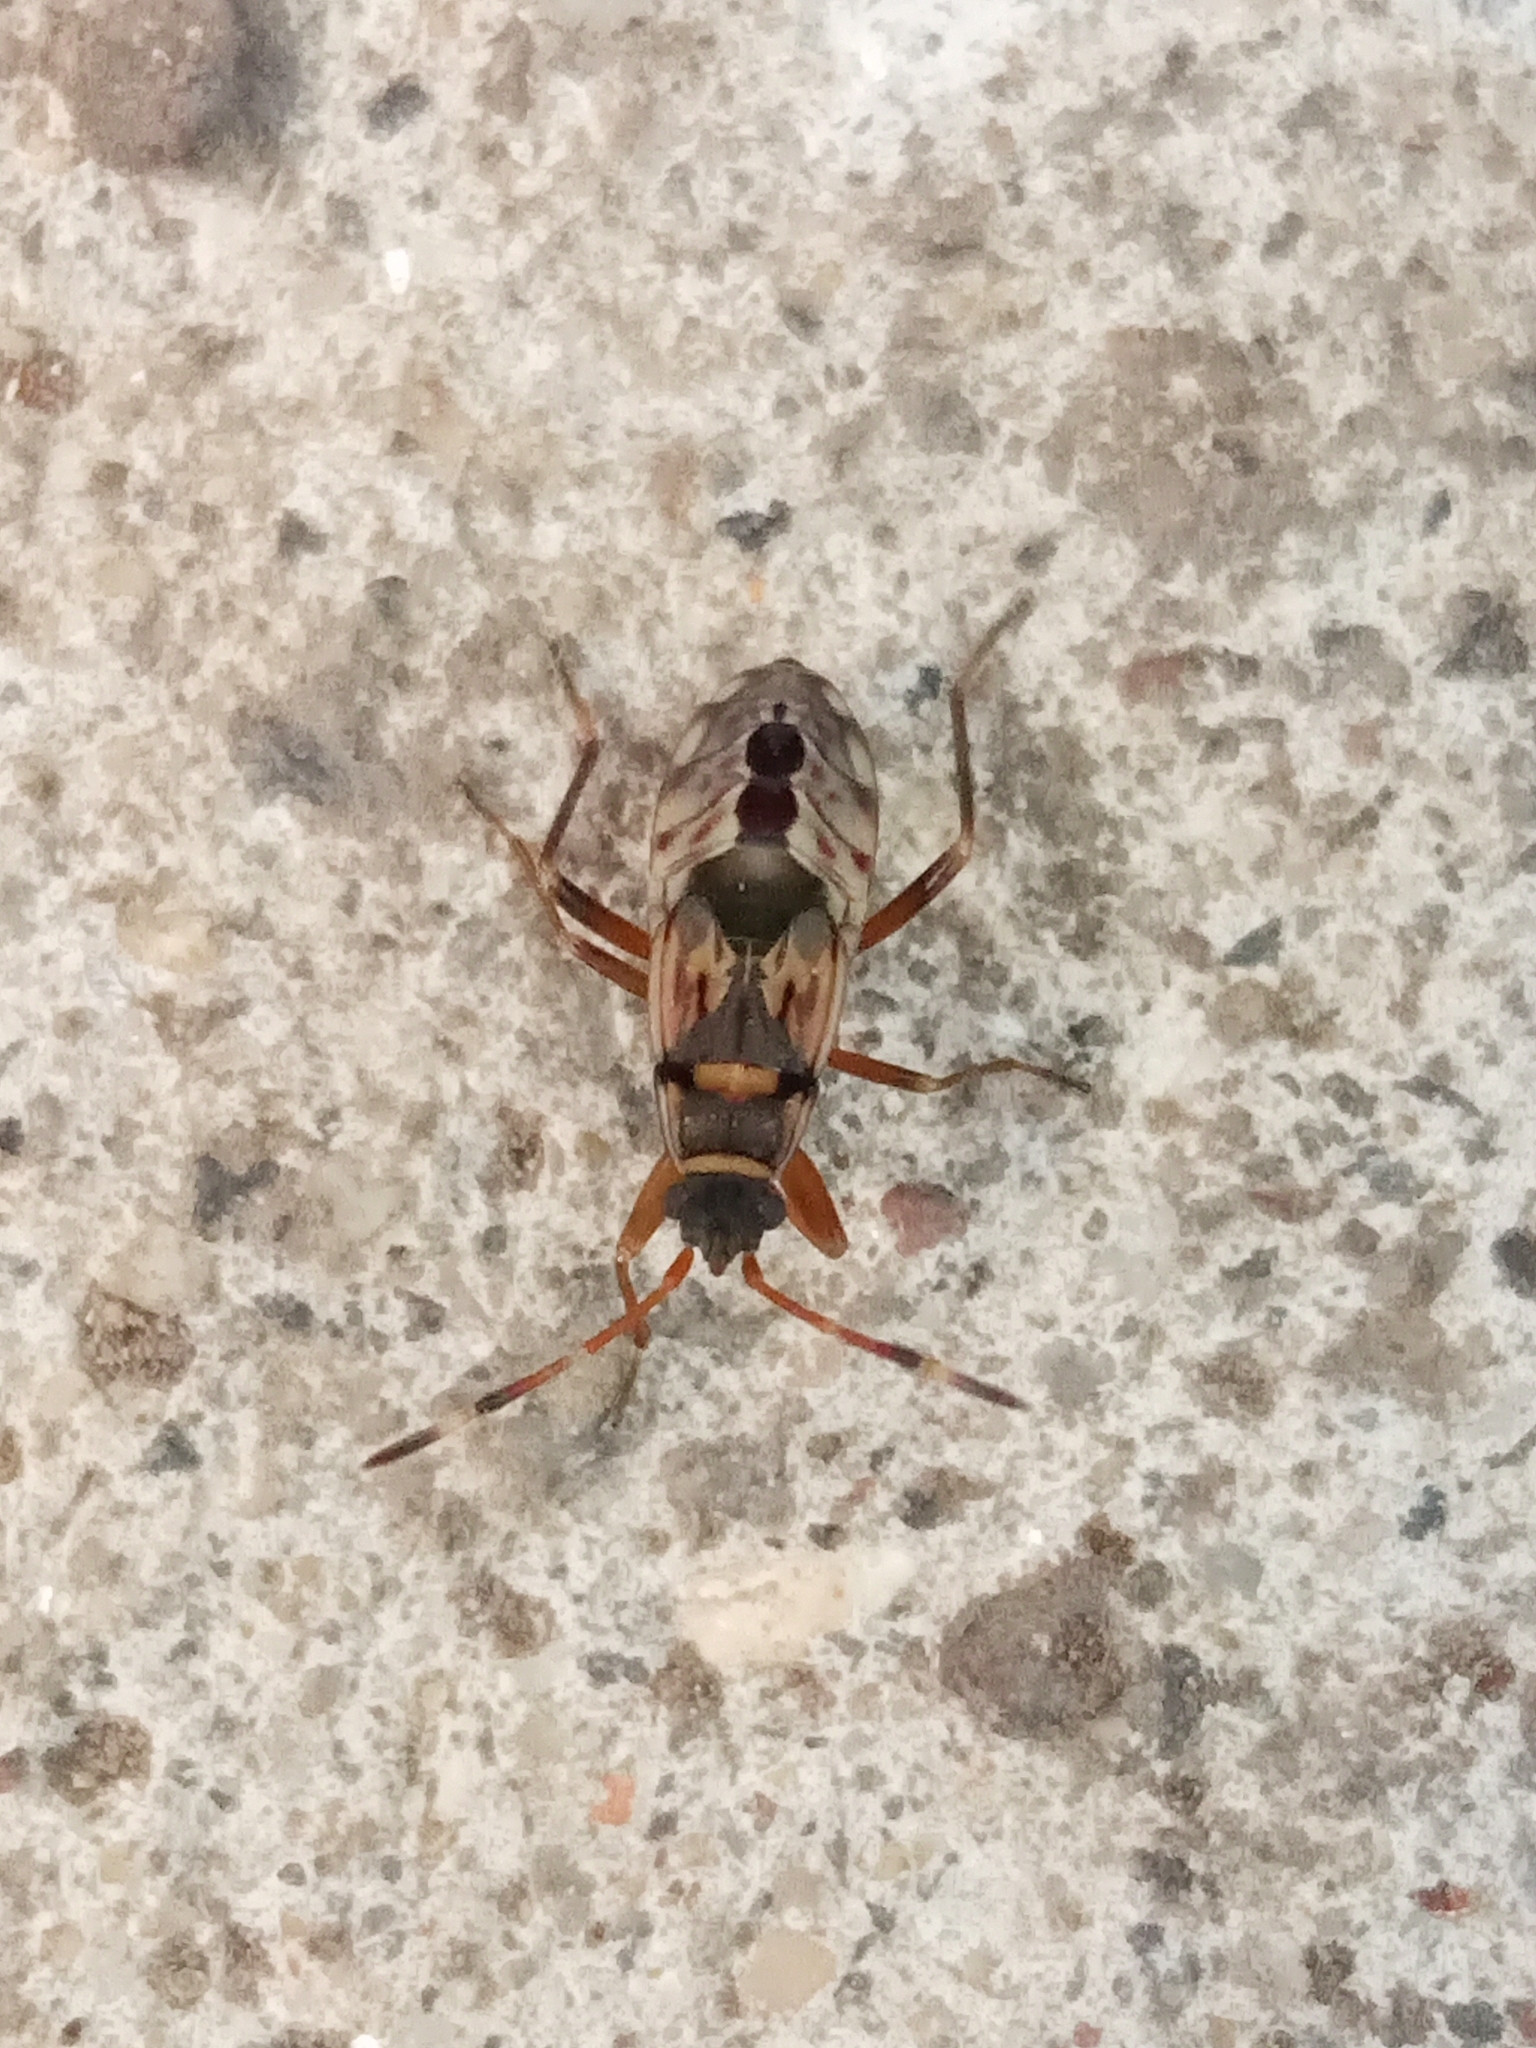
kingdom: Animalia
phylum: Arthropoda
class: Insecta
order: Hemiptera
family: Rhyparochromidae
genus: Beosus
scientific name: Beosus maritimus
